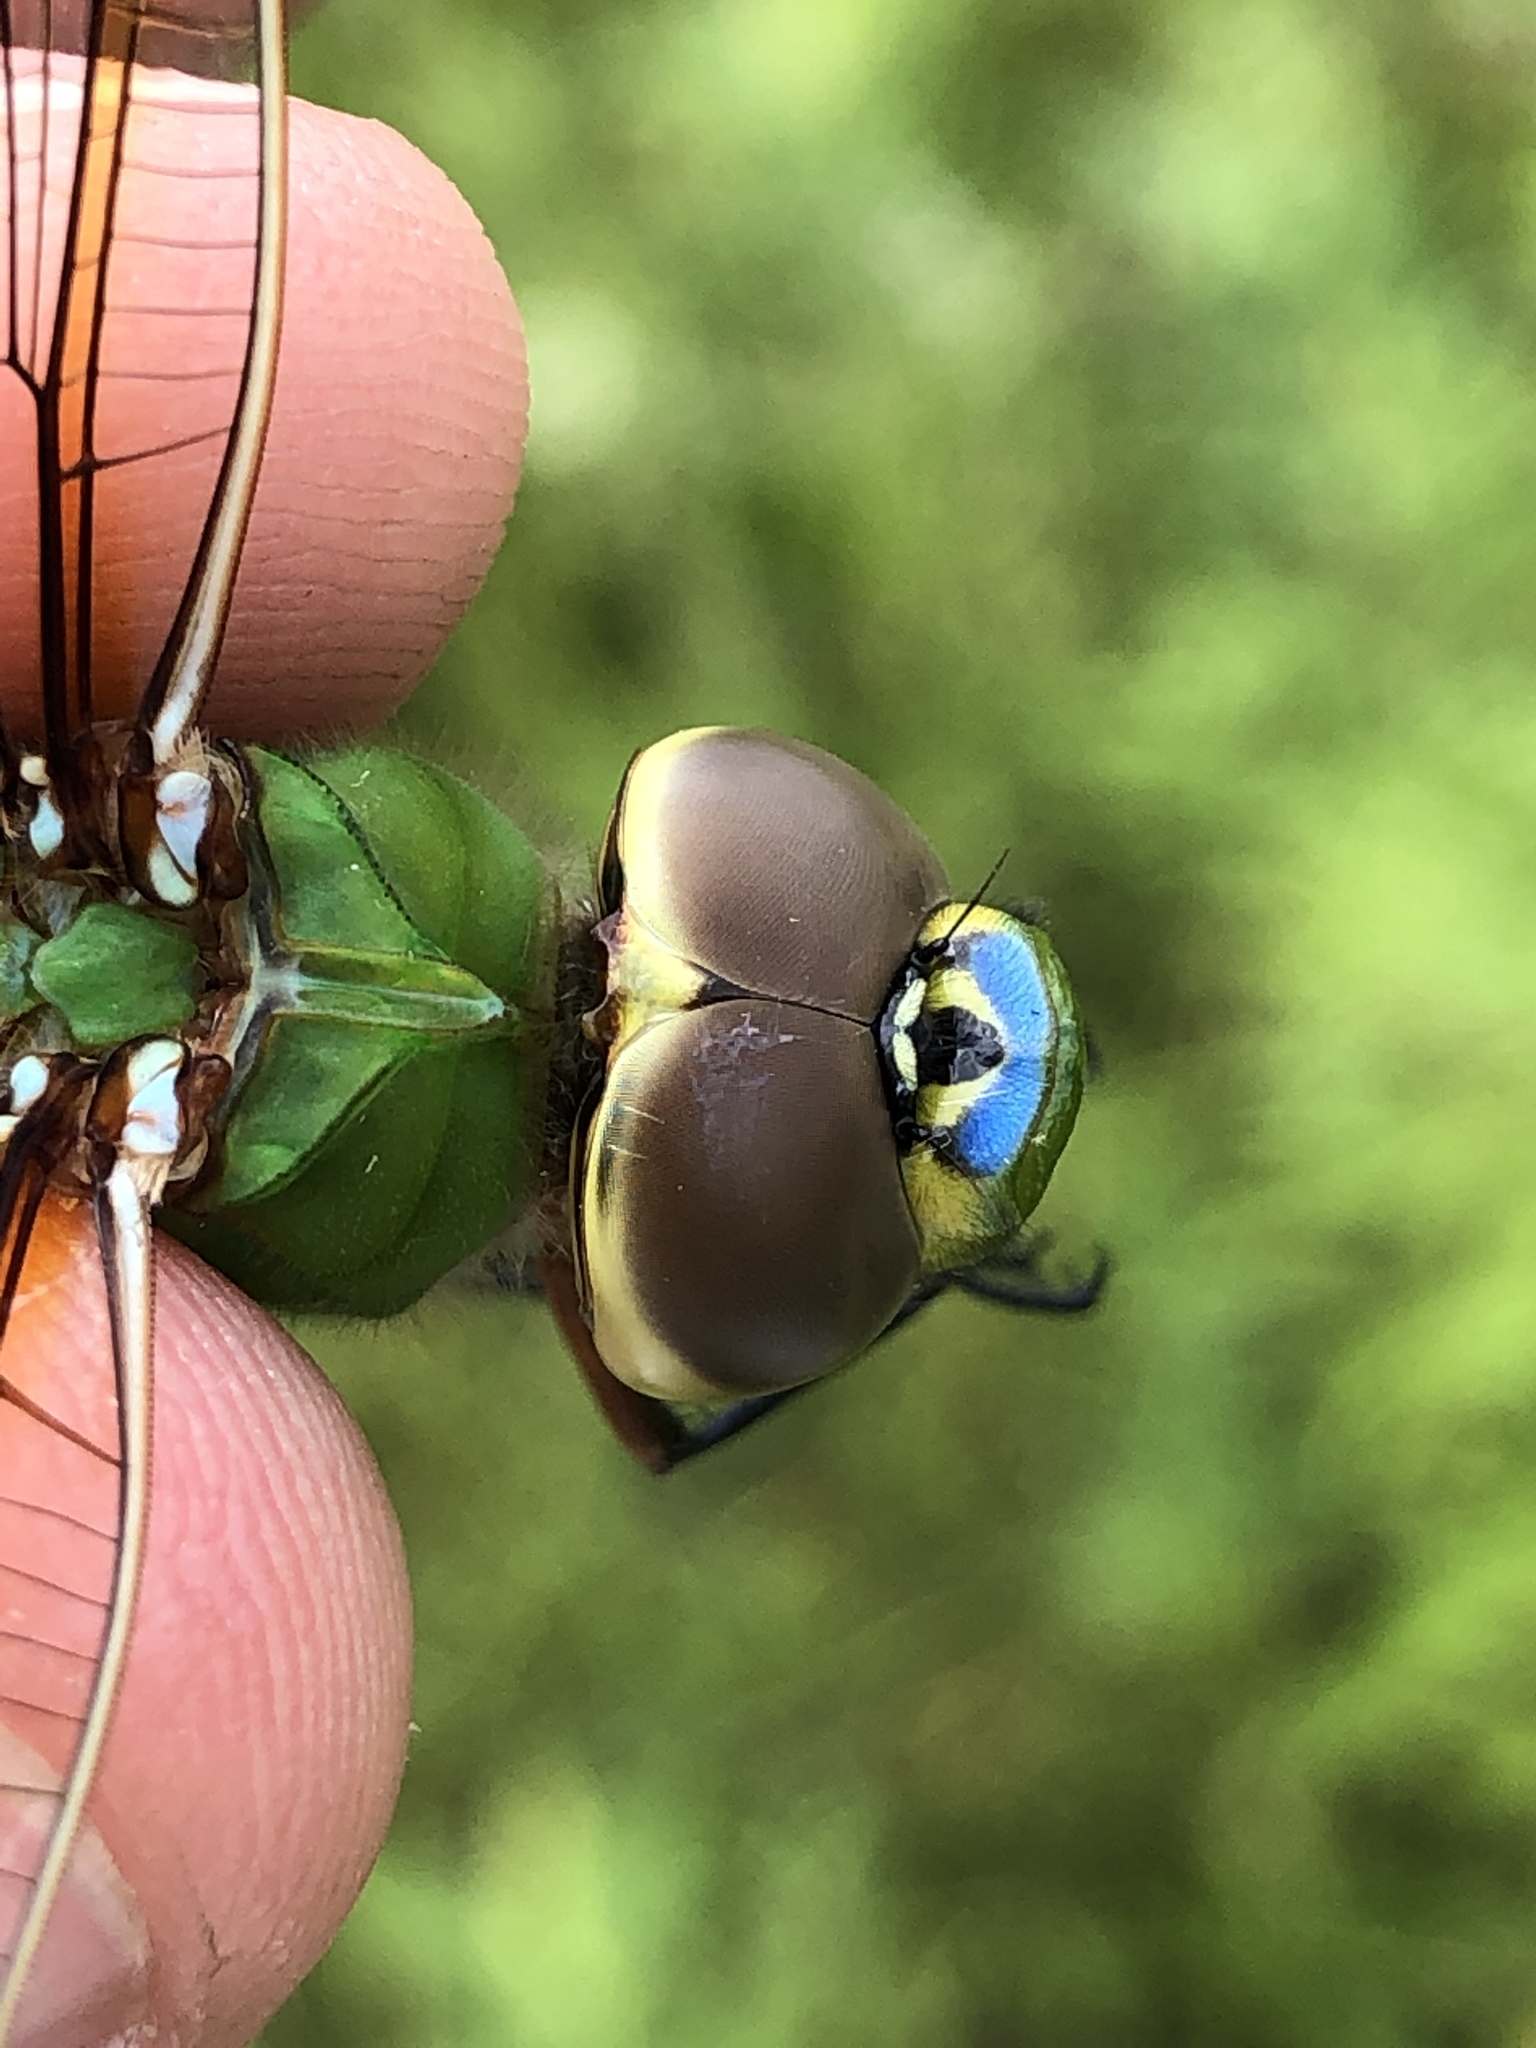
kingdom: Animalia
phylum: Arthropoda
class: Insecta
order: Odonata
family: Aeshnidae
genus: Anax
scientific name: Anax junius
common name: Common green darner
